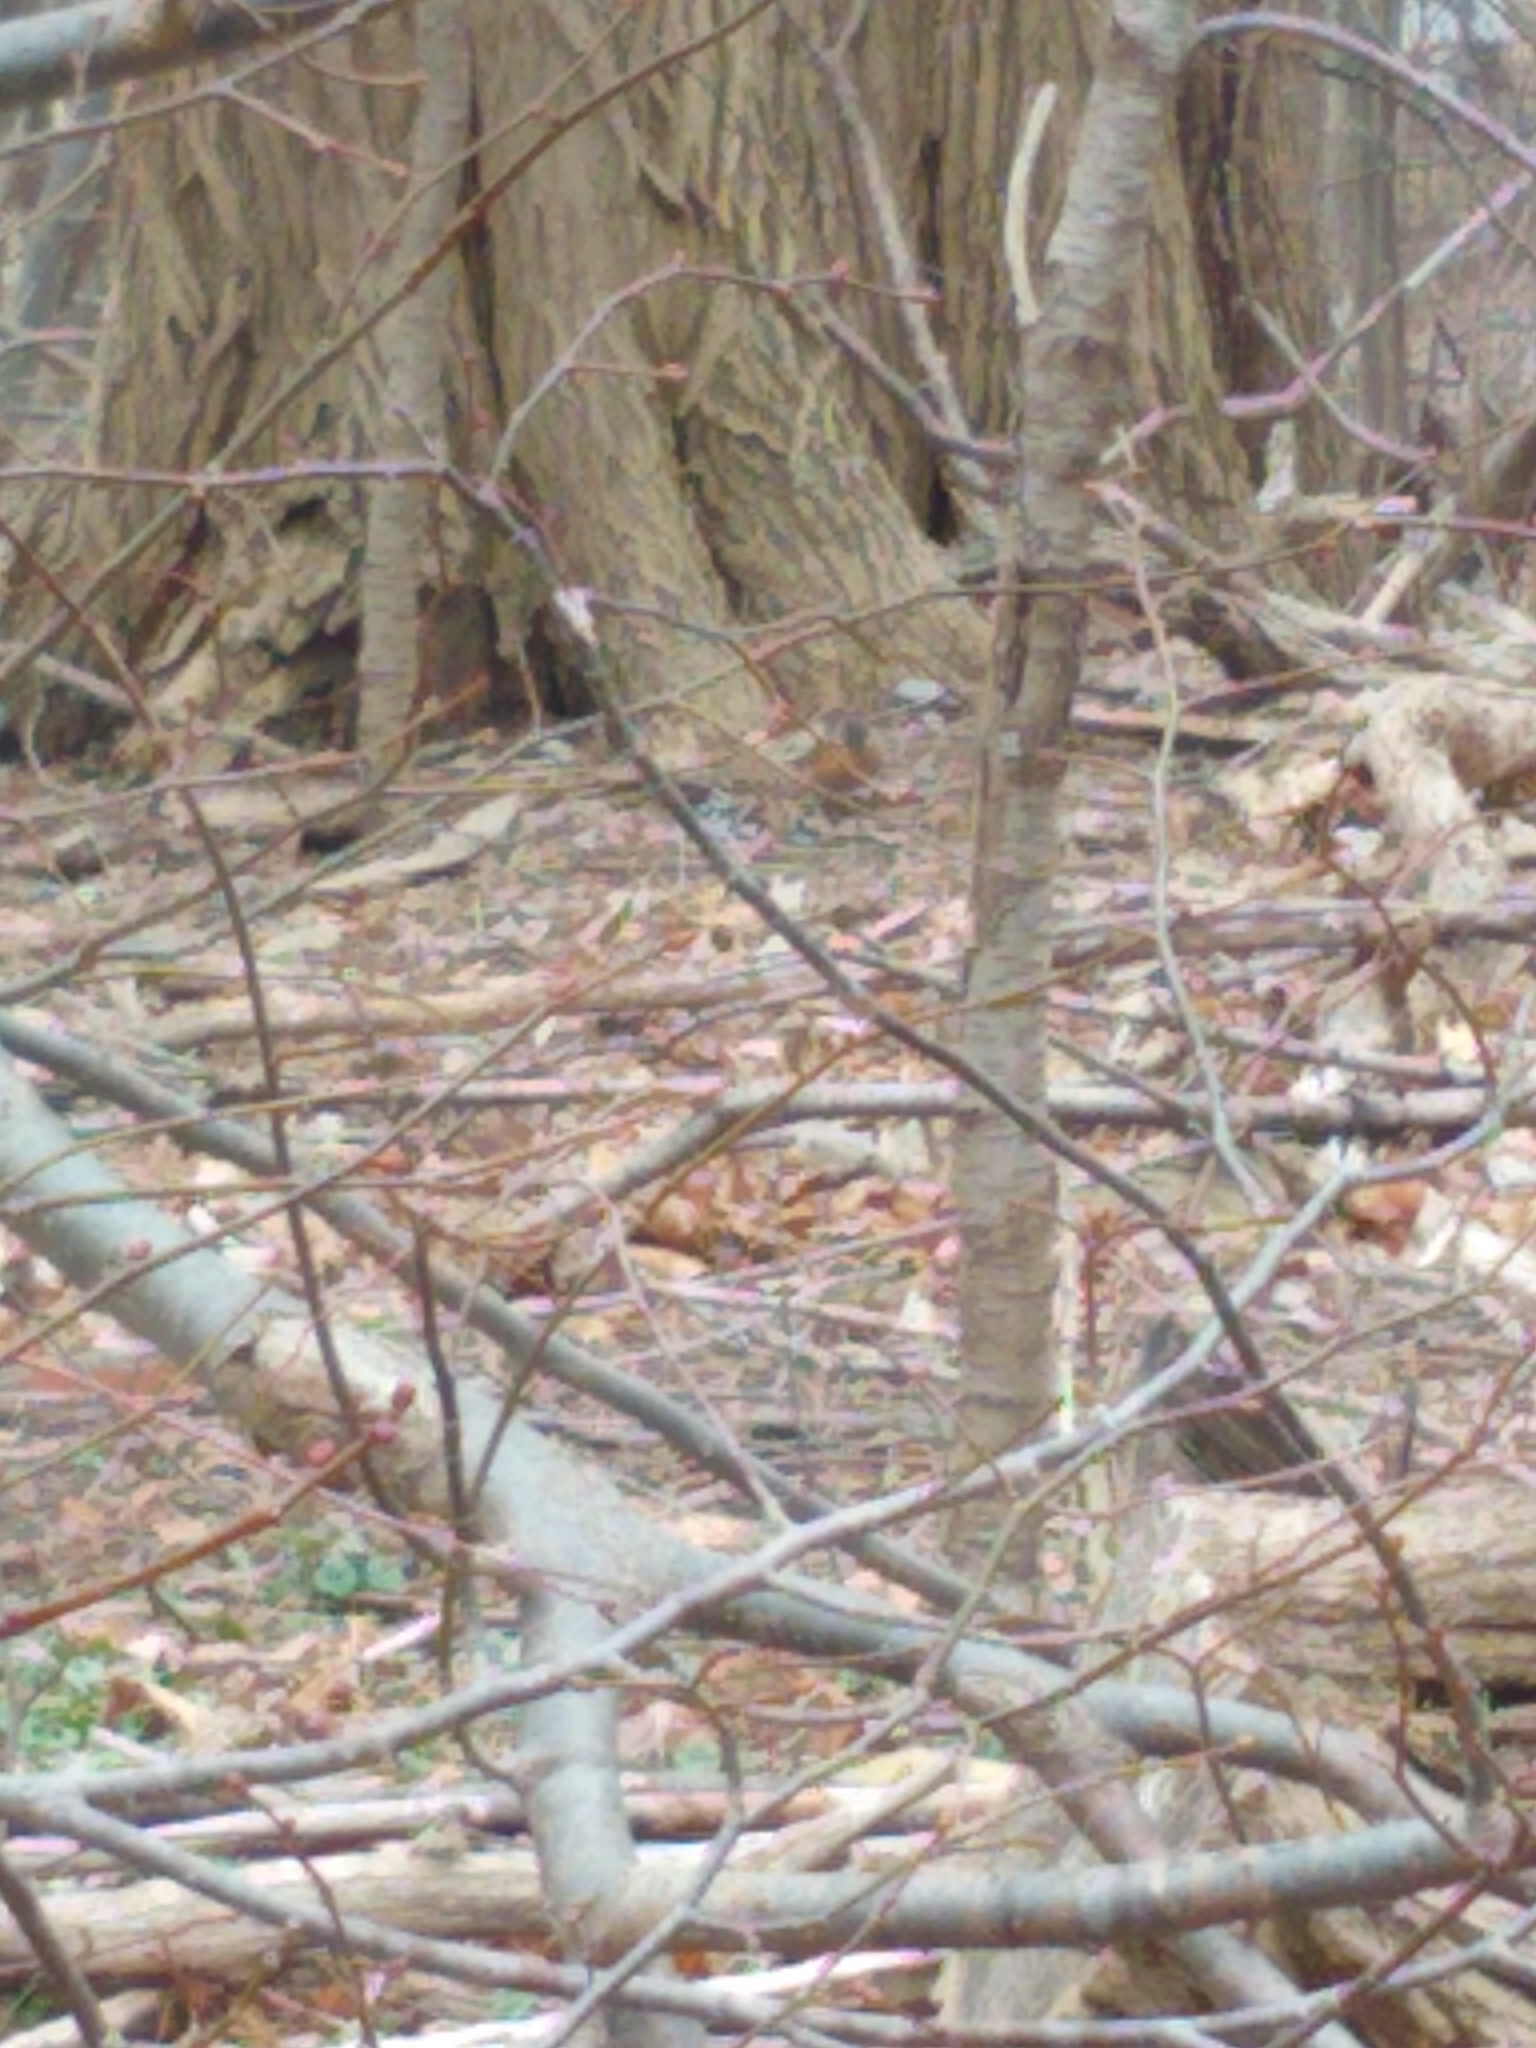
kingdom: Animalia
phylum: Chordata
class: Aves
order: Passeriformes
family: Turdidae
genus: Turdus
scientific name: Turdus migratorius
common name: American robin
